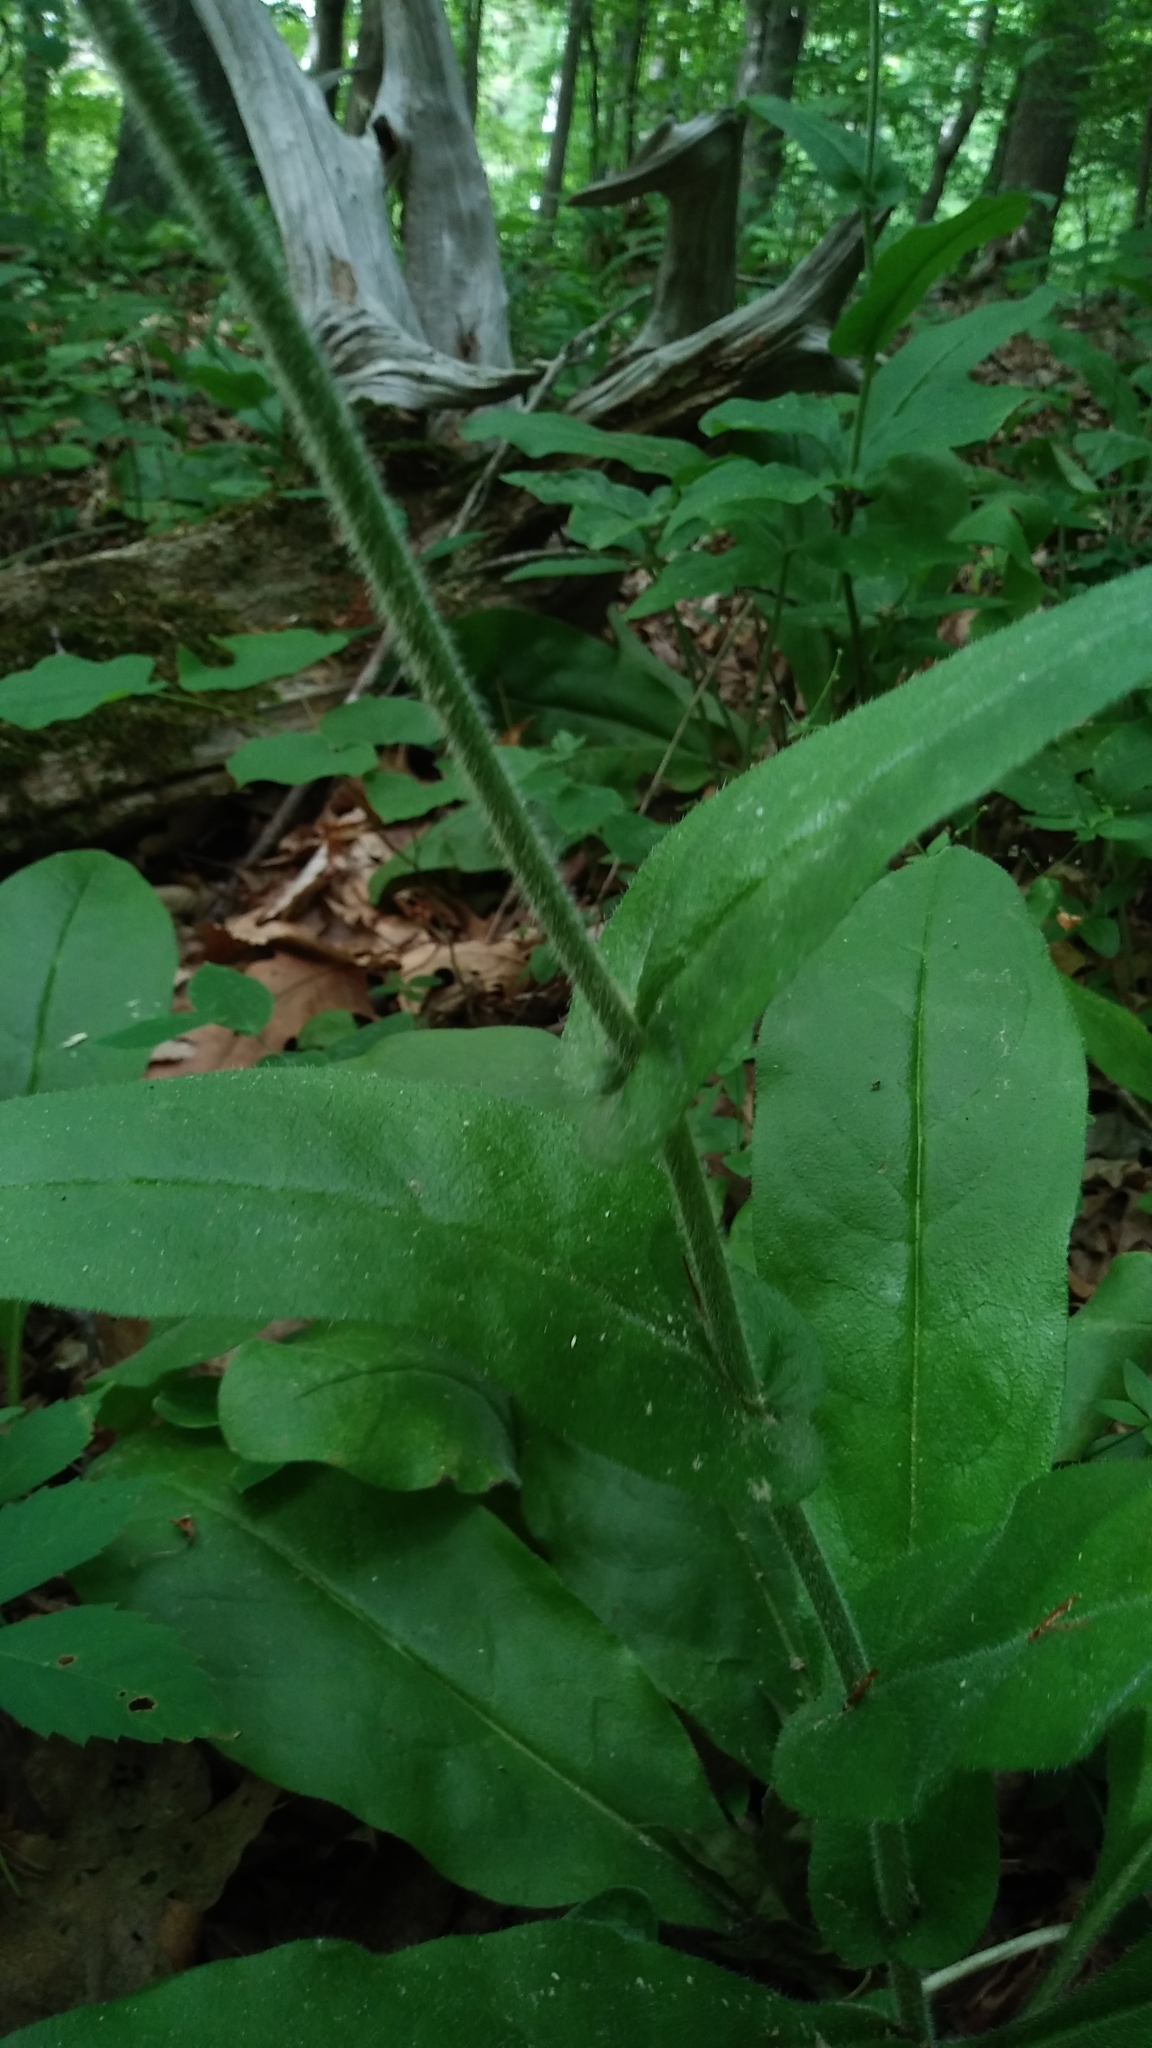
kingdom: Plantae
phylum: Tracheophyta
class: Magnoliopsida
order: Boraginales
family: Boraginaceae
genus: Andersonglossum
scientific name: Andersonglossum virginianum
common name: Wild comfrey
